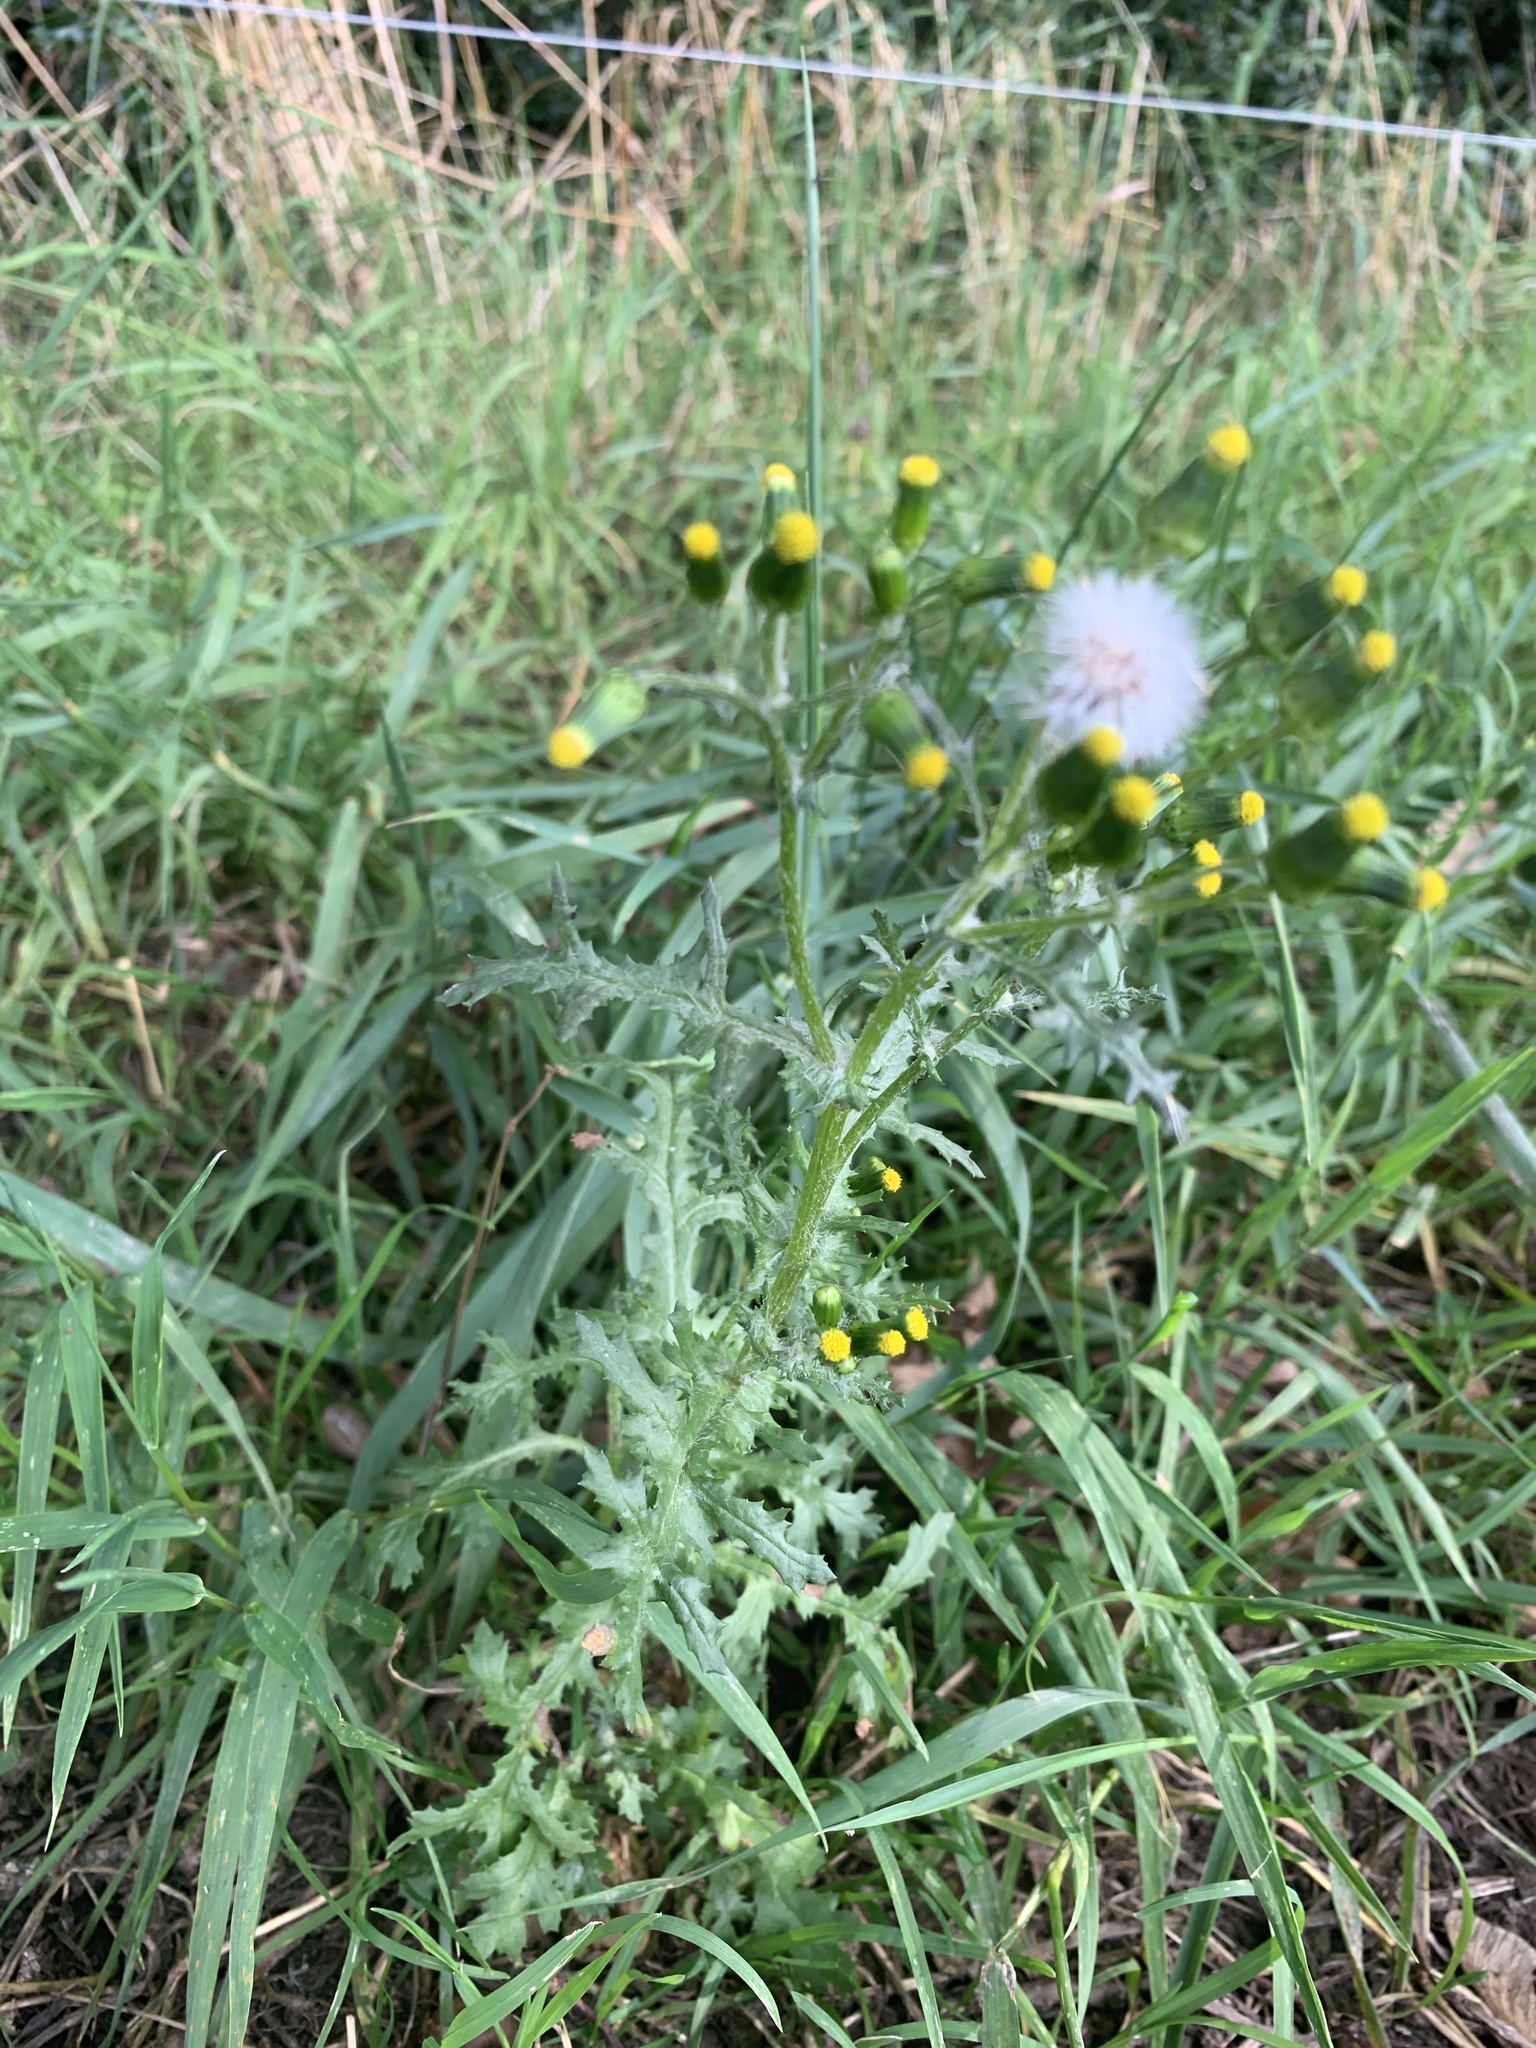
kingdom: Plantae
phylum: Tracheophyta
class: Magnoliopsida
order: Asterales
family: Asteraceae
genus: Senecio
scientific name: Senecio vulgaris
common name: Old-man-in-the-spring
